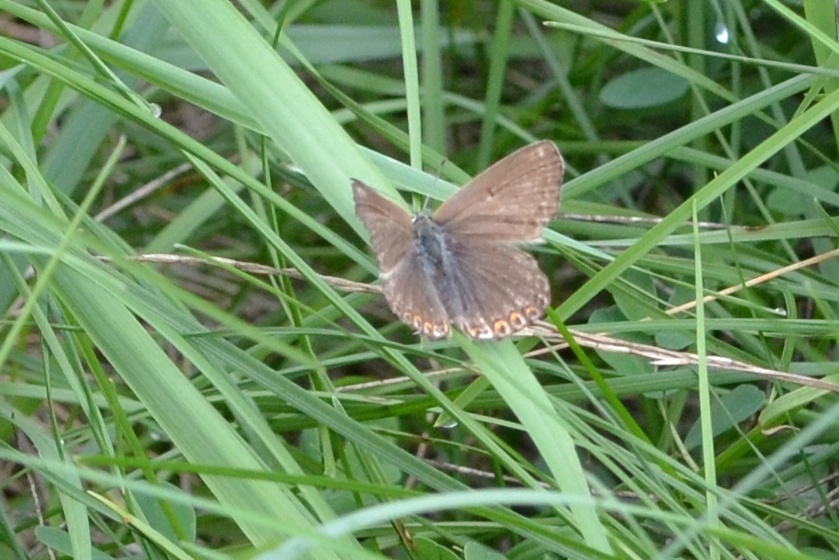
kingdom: Animalia
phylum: Arthropoda
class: Insecta
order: Lepidoptera
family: Lycaenidae
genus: Lysandra
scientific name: Lysandra coridon
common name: Chalkhill blue
